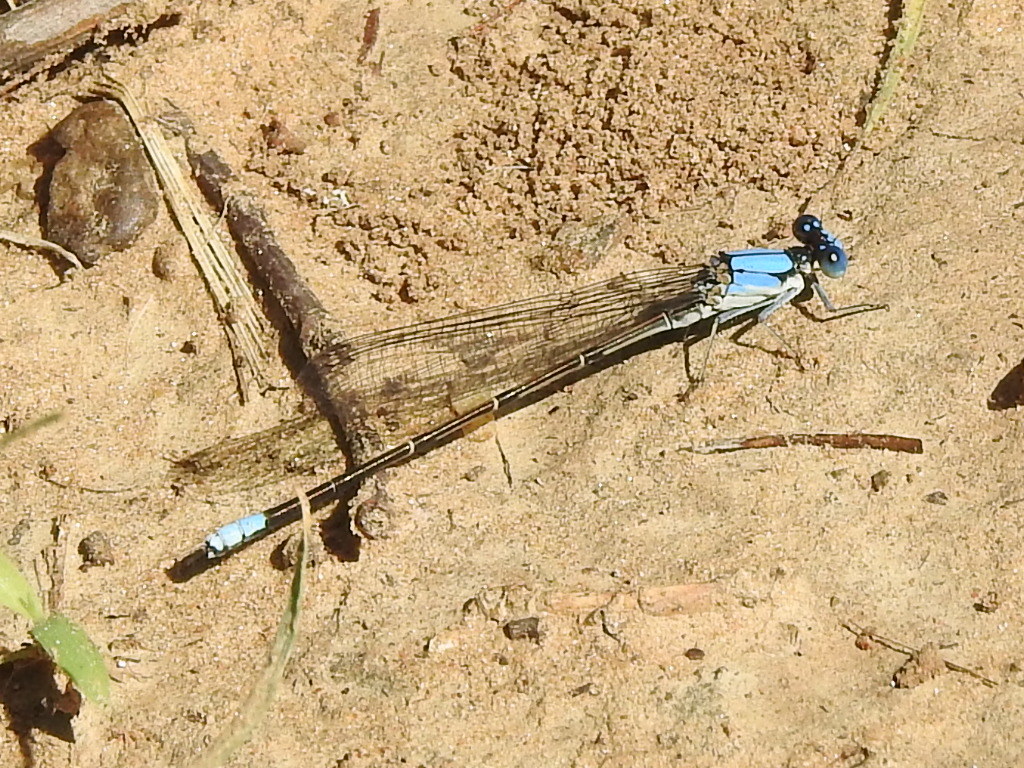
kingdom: Animalia
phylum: Arthropoda
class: Insecta
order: Odonata
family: Coenagrionidae
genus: Argia
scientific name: Argia apicalis
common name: Blue-fronted dancer
